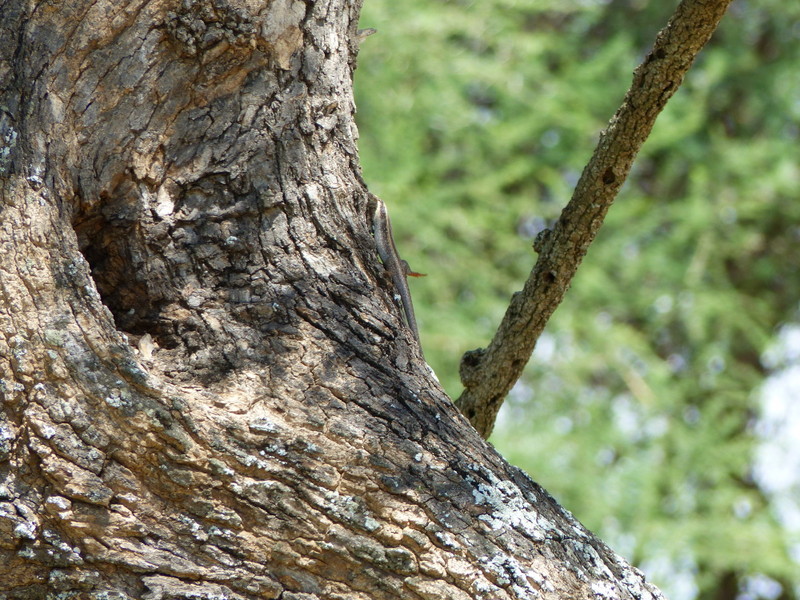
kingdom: Animalia
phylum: Chordata
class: Squamata
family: Scincidae
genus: Trachylepis
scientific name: Trachylepis planifrons
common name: Tree skink
